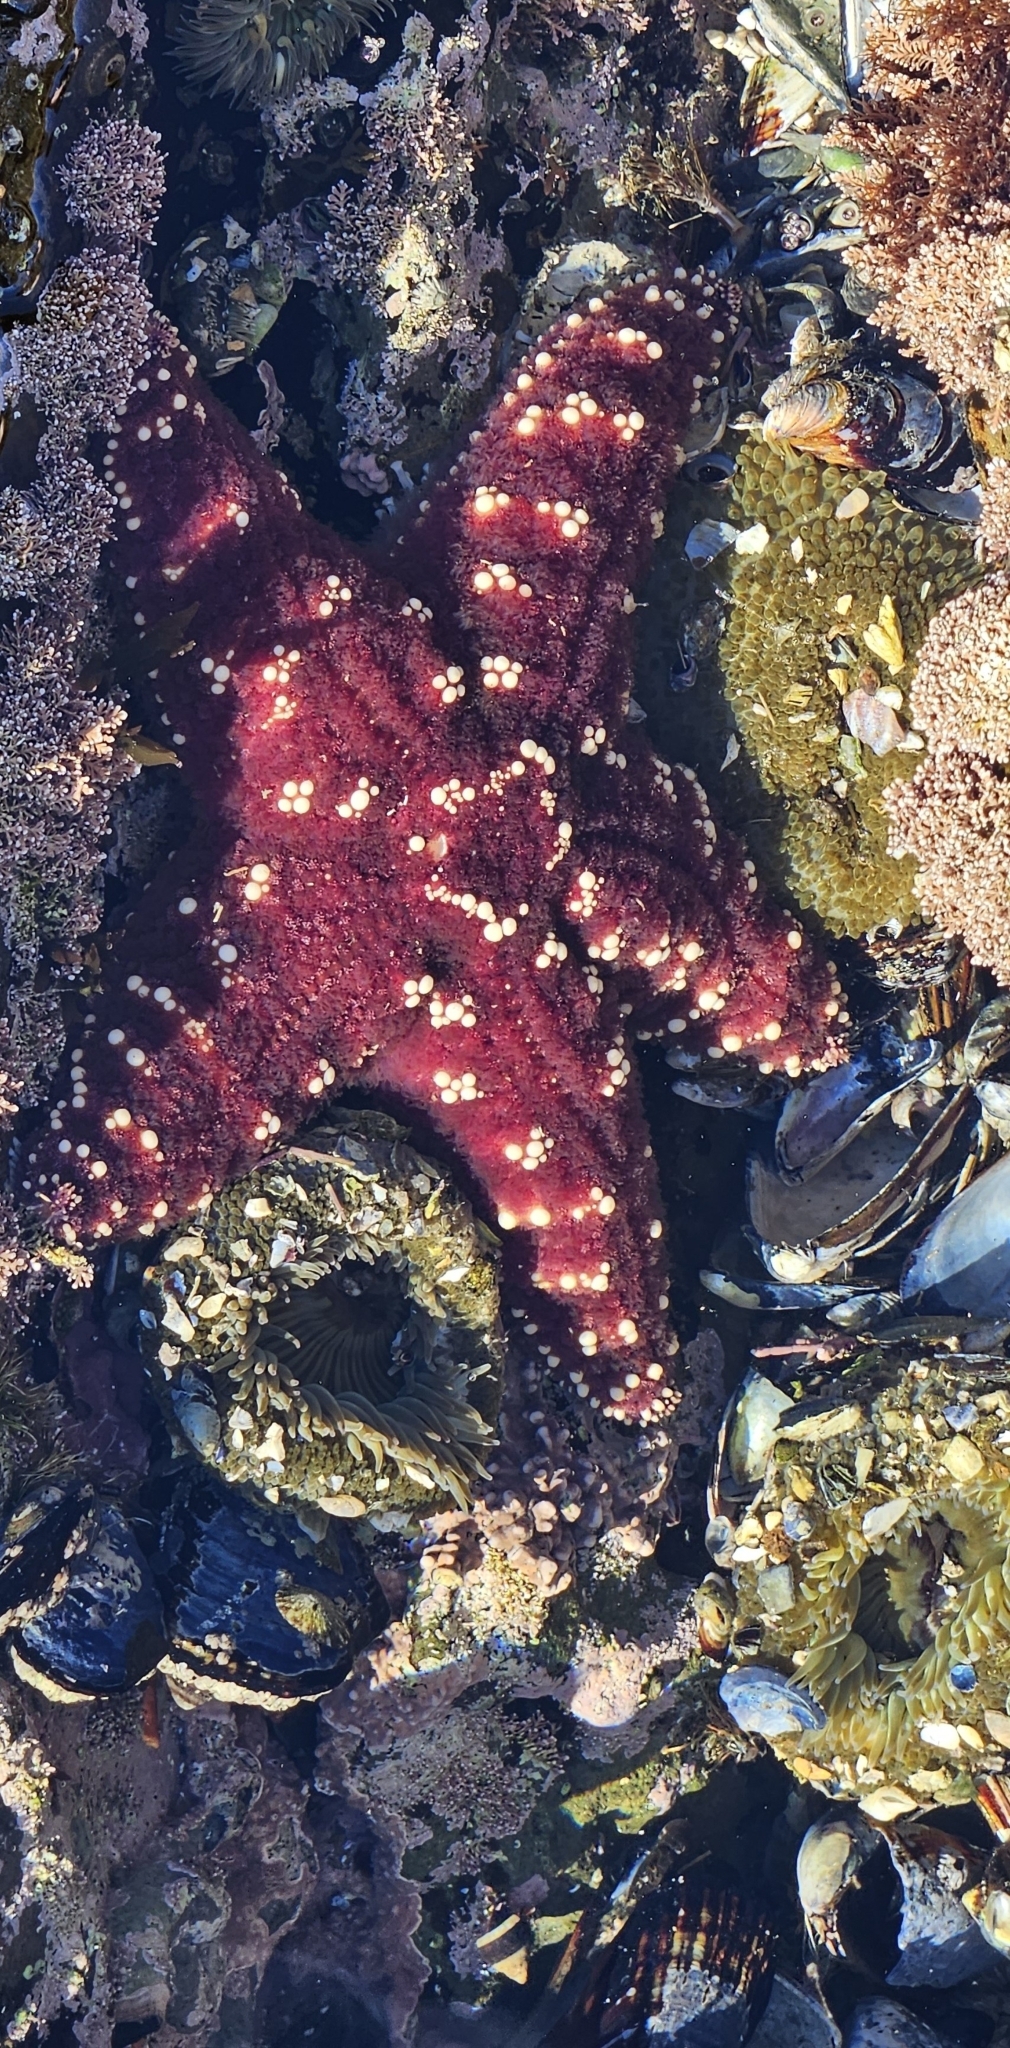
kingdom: Animalia
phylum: Echinodermata
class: Asteroidea
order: Forcipulatida
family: Asteriidae
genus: Pisaster
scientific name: Pisaster ochraceus
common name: Ochre stars
